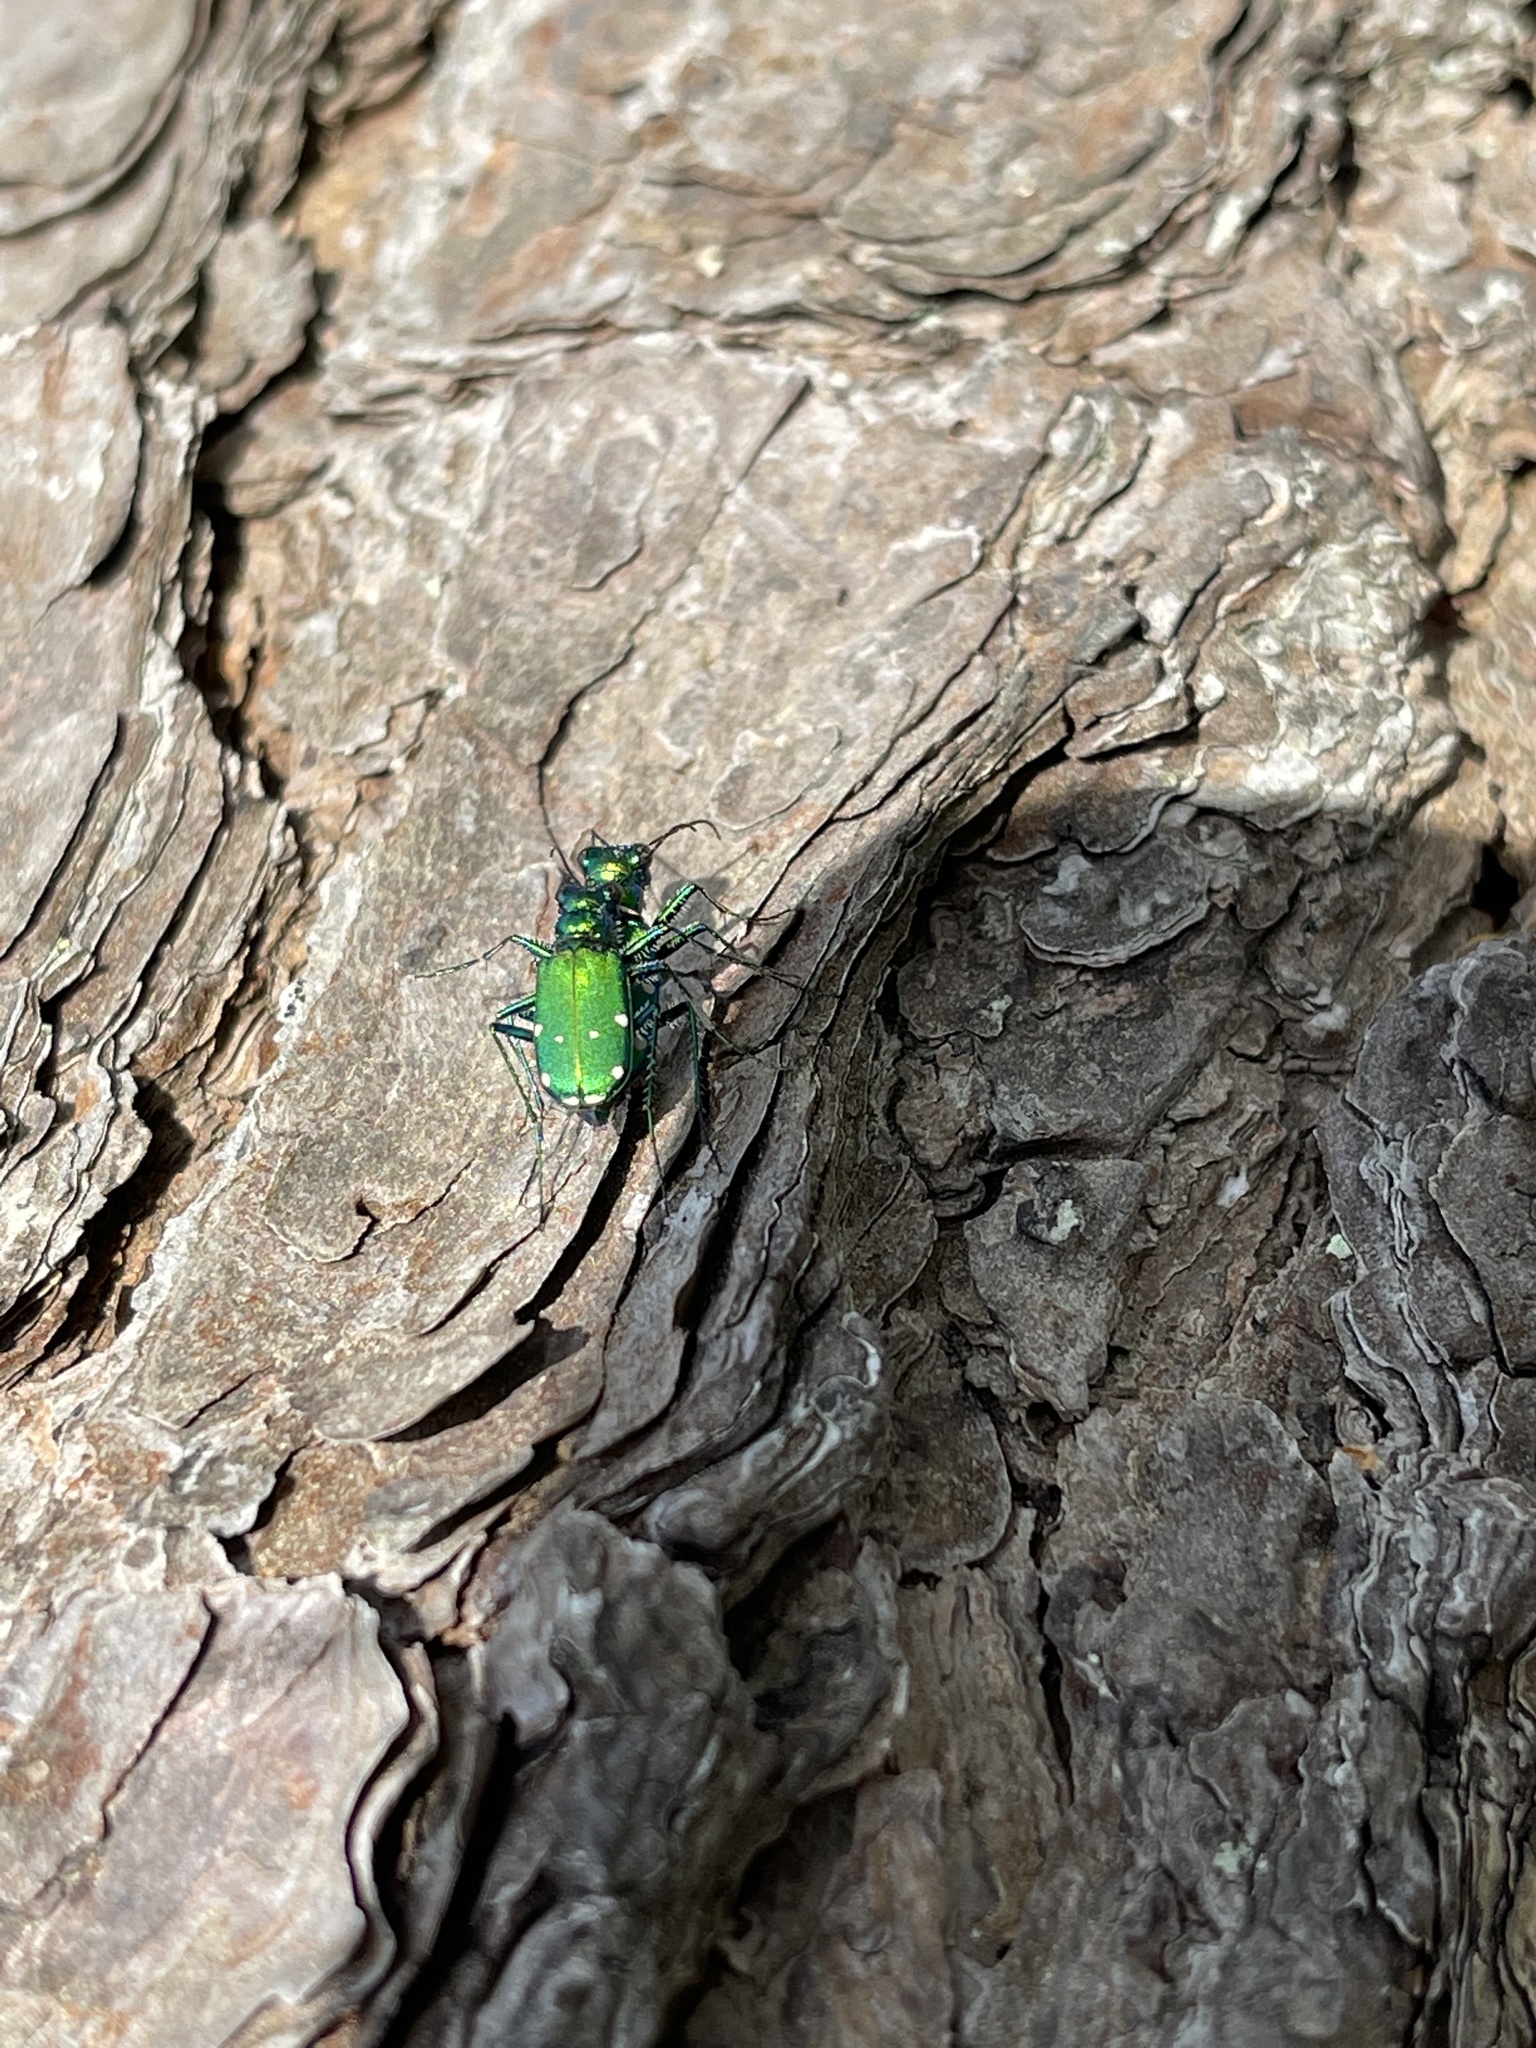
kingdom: Animalia
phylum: Arthropoda
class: Insecta
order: Coleoptera
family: Carabidae
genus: Cicindela
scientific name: Cicindela sexguttata
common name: Six-spotted tiger beetle
